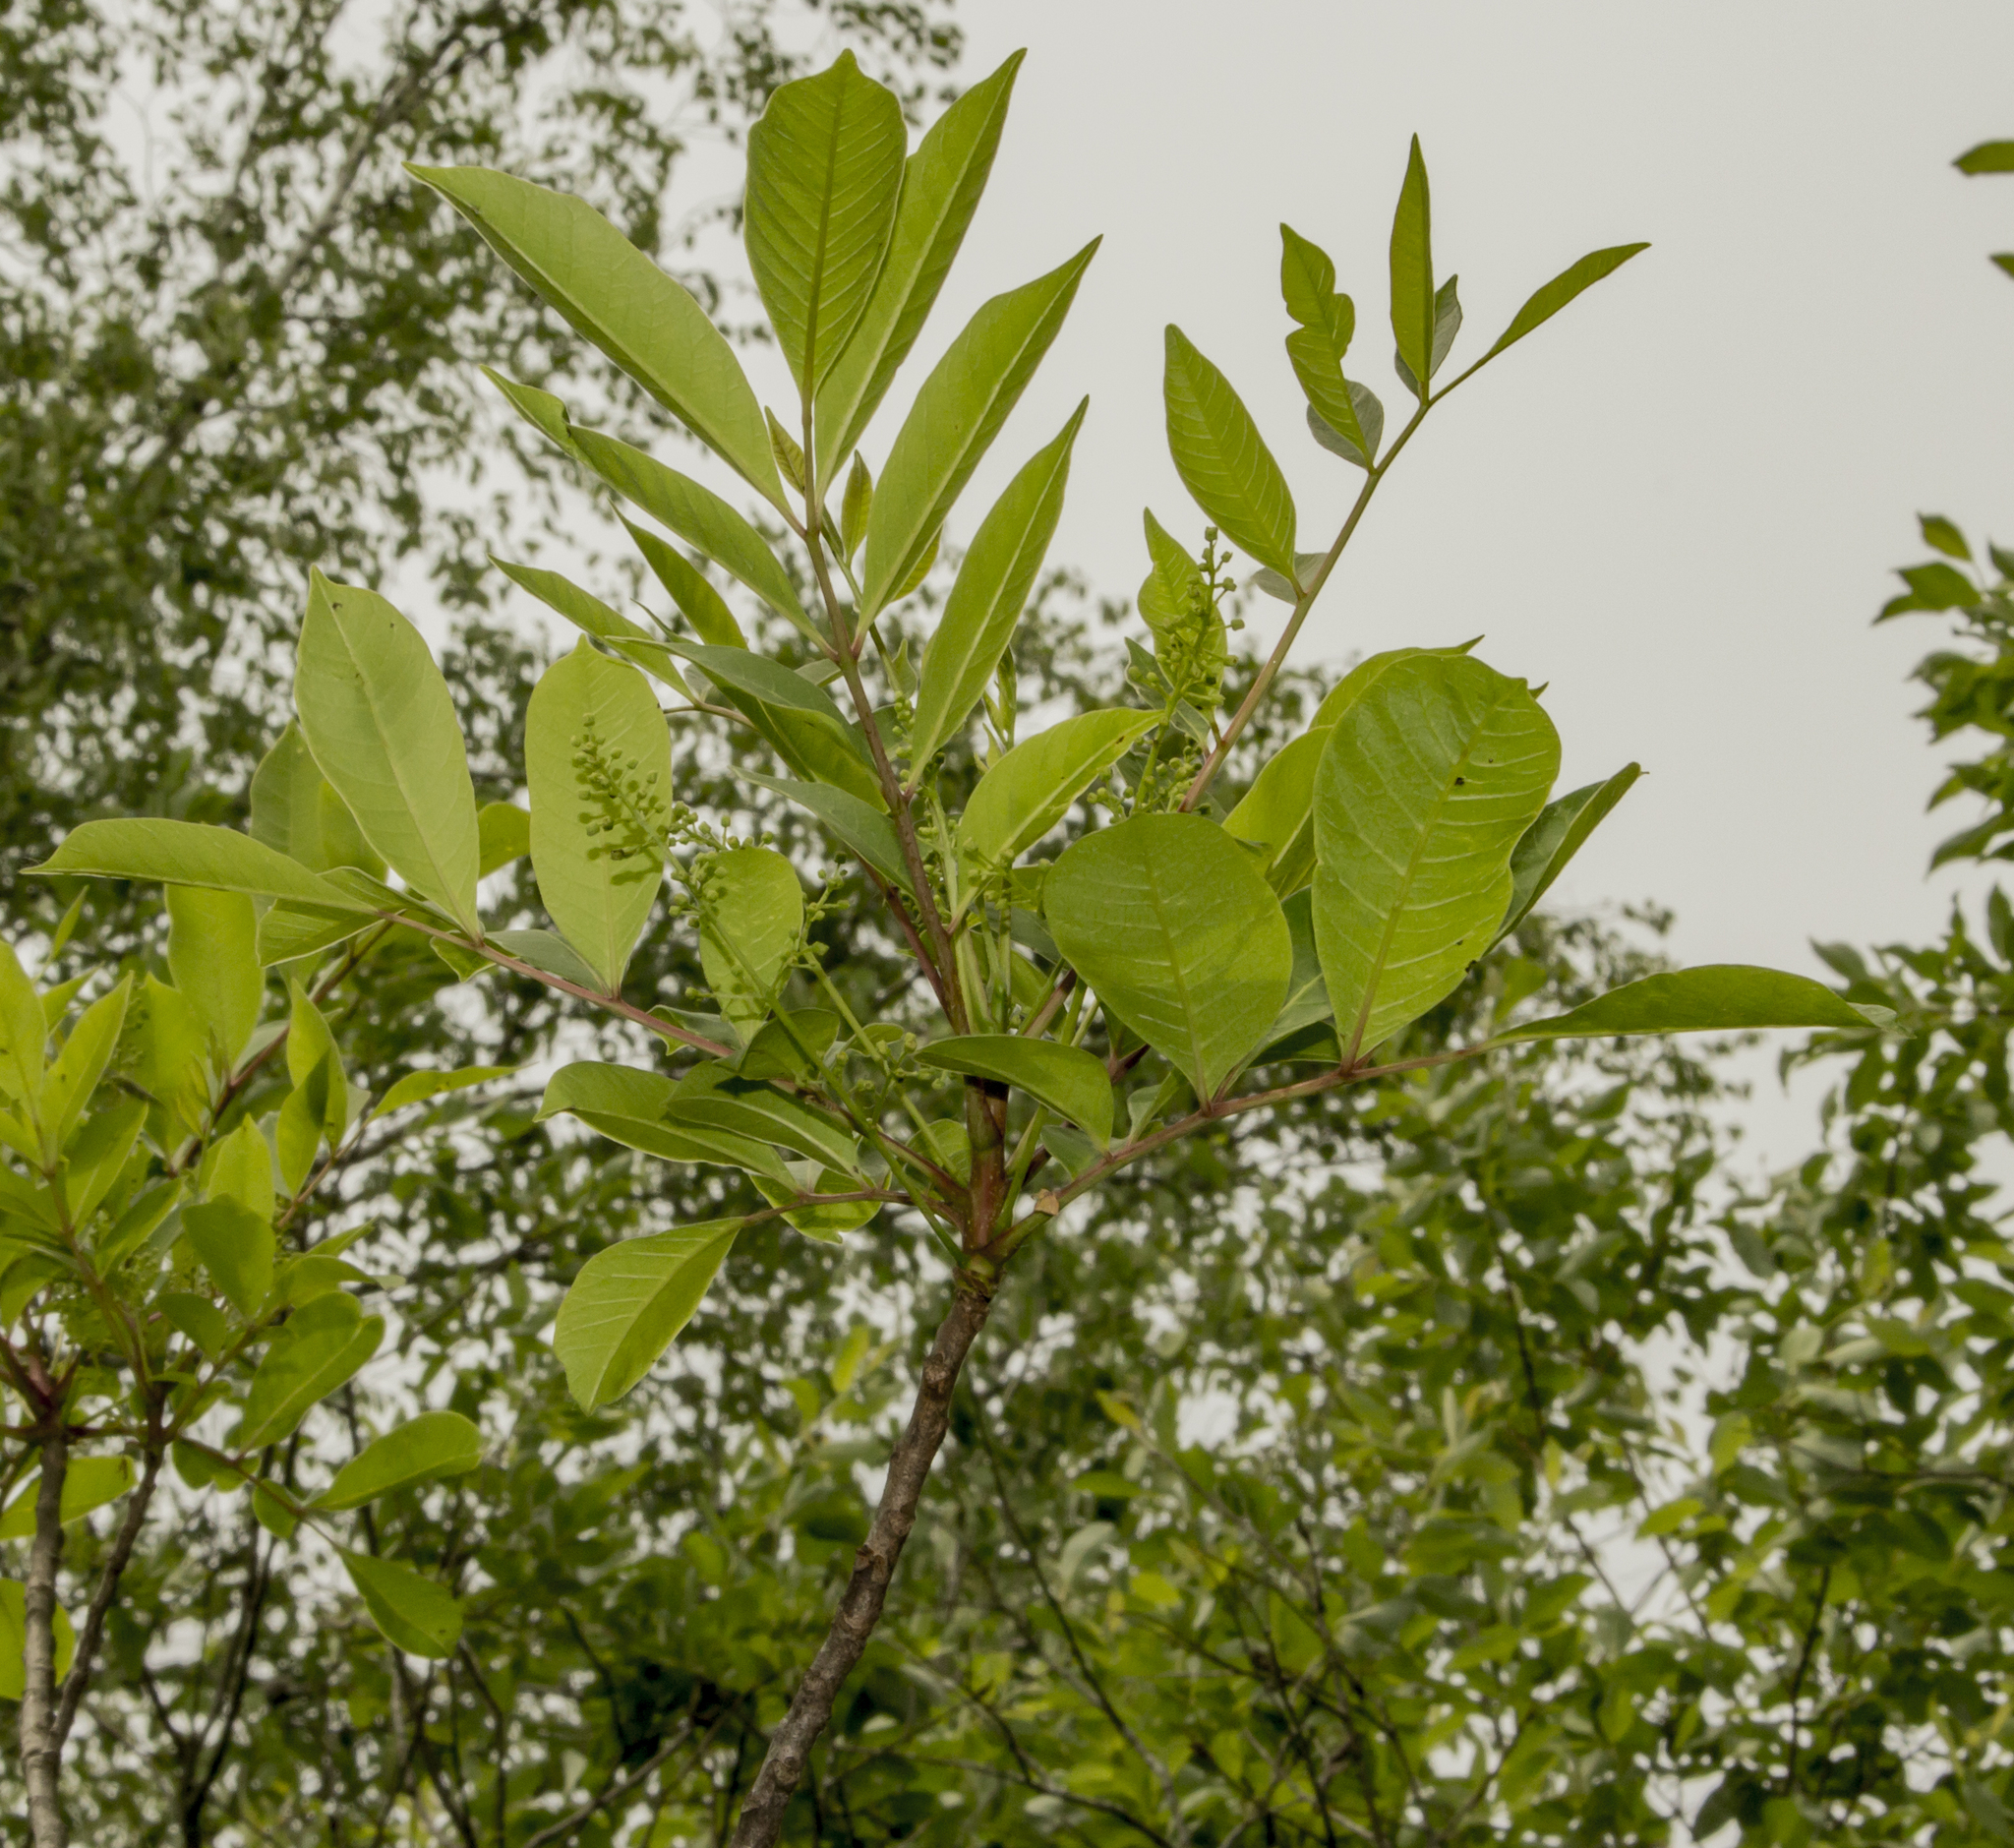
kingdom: Plantae
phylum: Tracheophyta
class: Magnoliopsida
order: Sapindales
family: Anacardiaceae
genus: Toxicodendron
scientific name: Toxicodendron vernix
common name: Poison sumac
